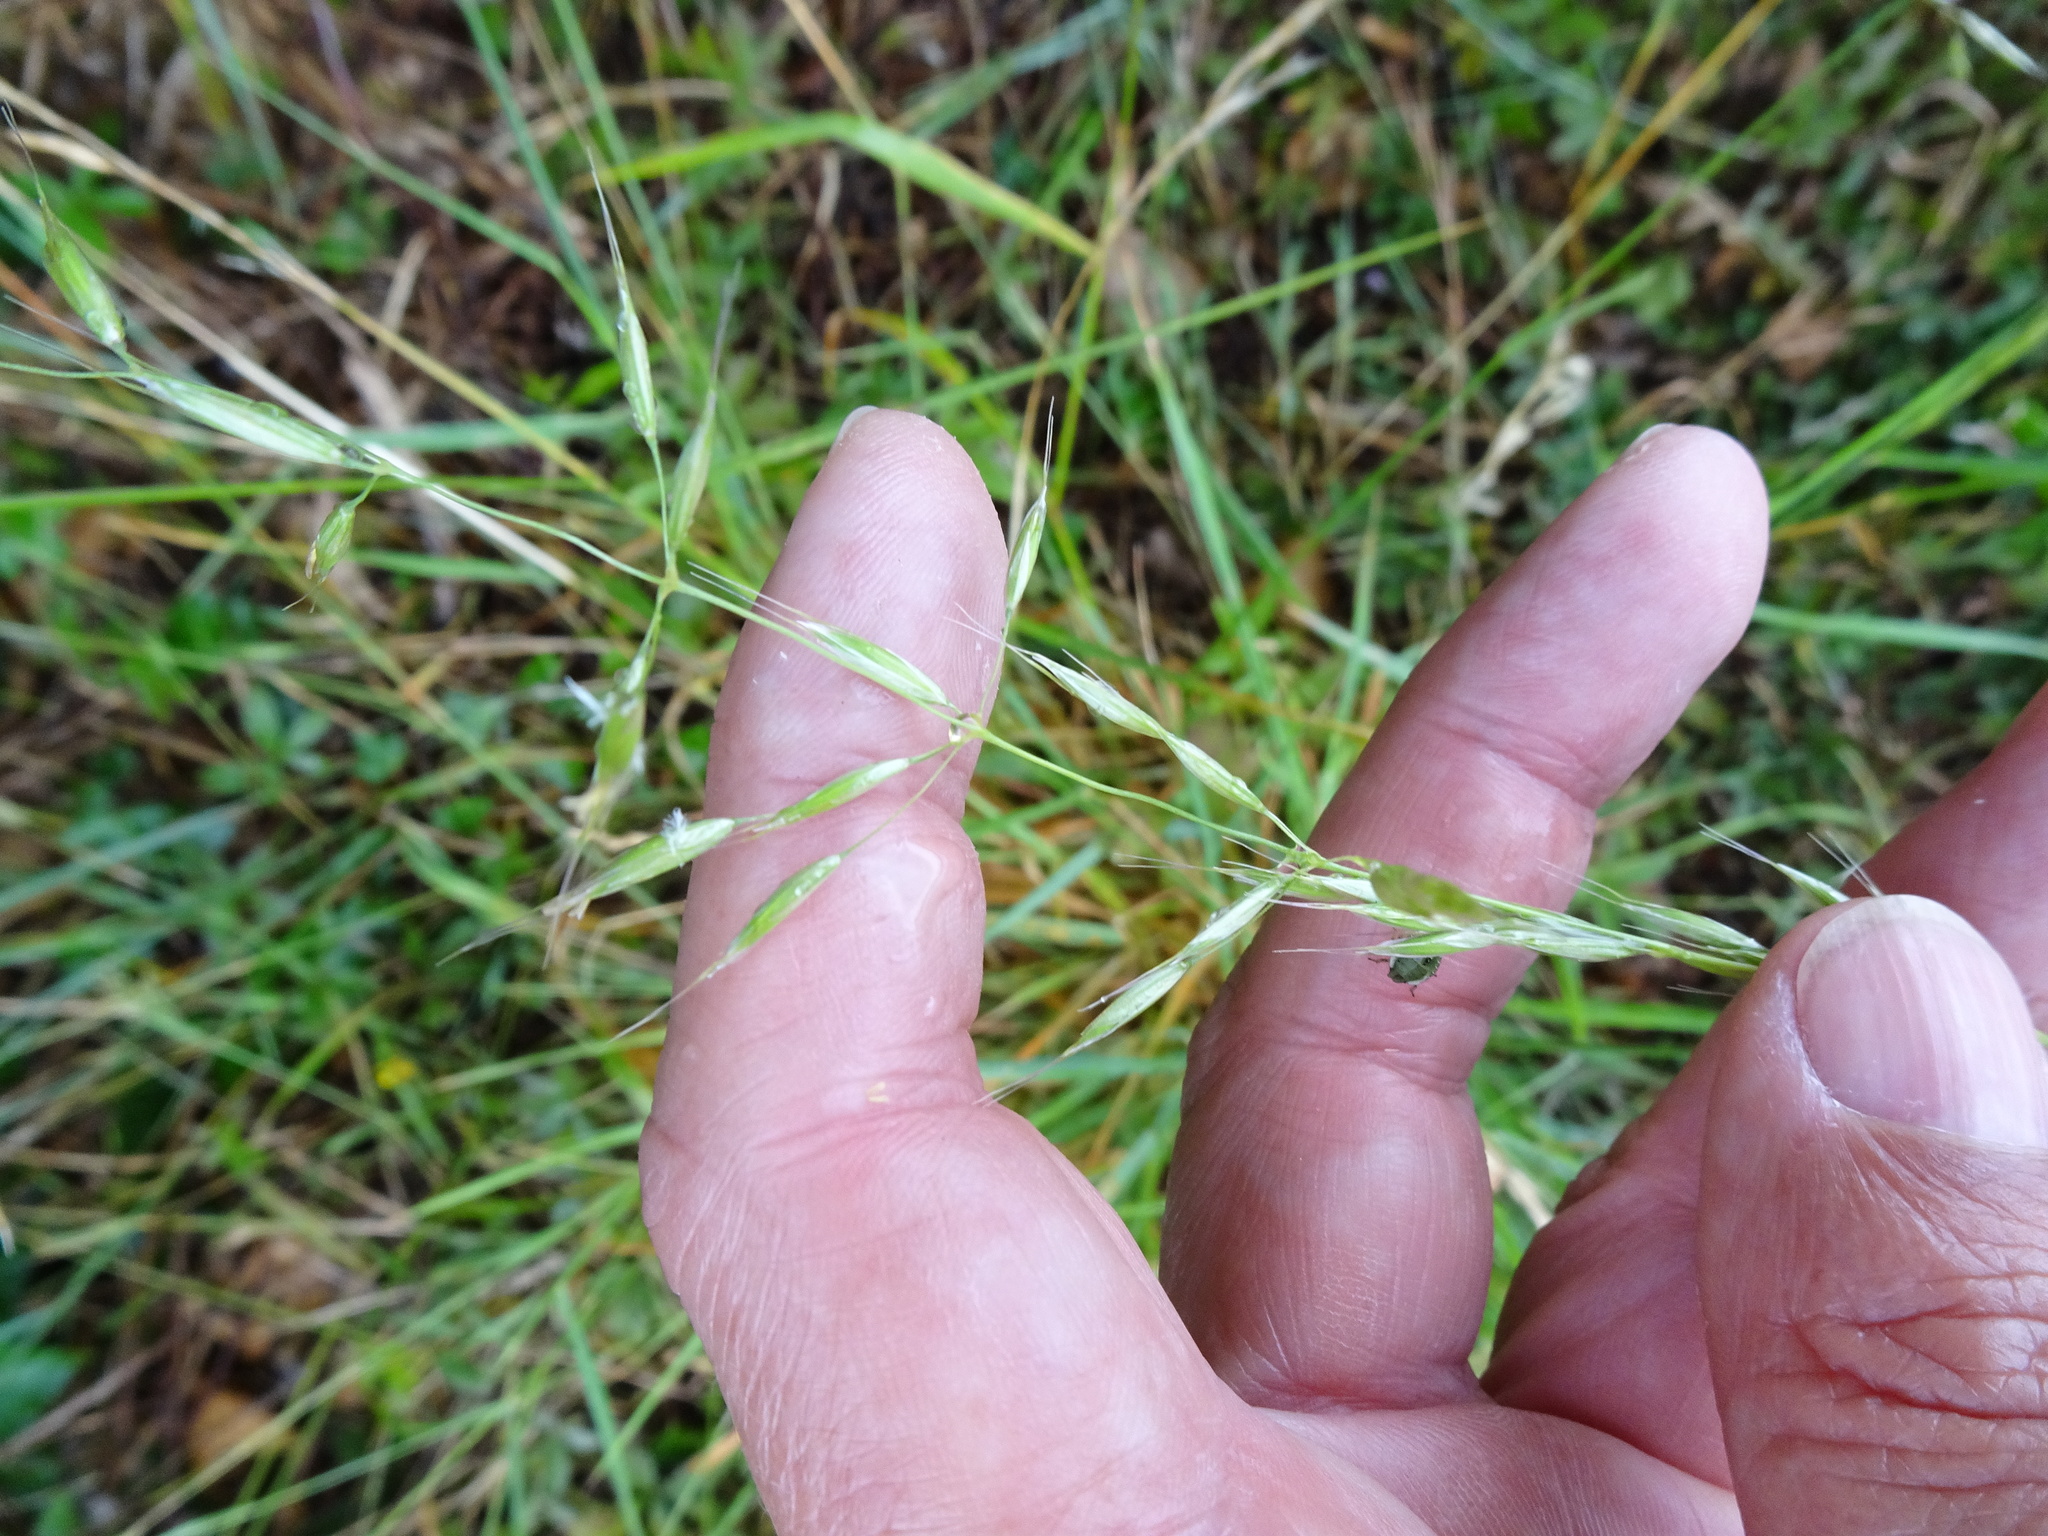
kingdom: Plantae
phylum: Tracheophyta
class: Liliopsida
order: Poales
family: Poaceae
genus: Arrhenatherum
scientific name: Arrhenatherum elatius
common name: Tall oatgrass
